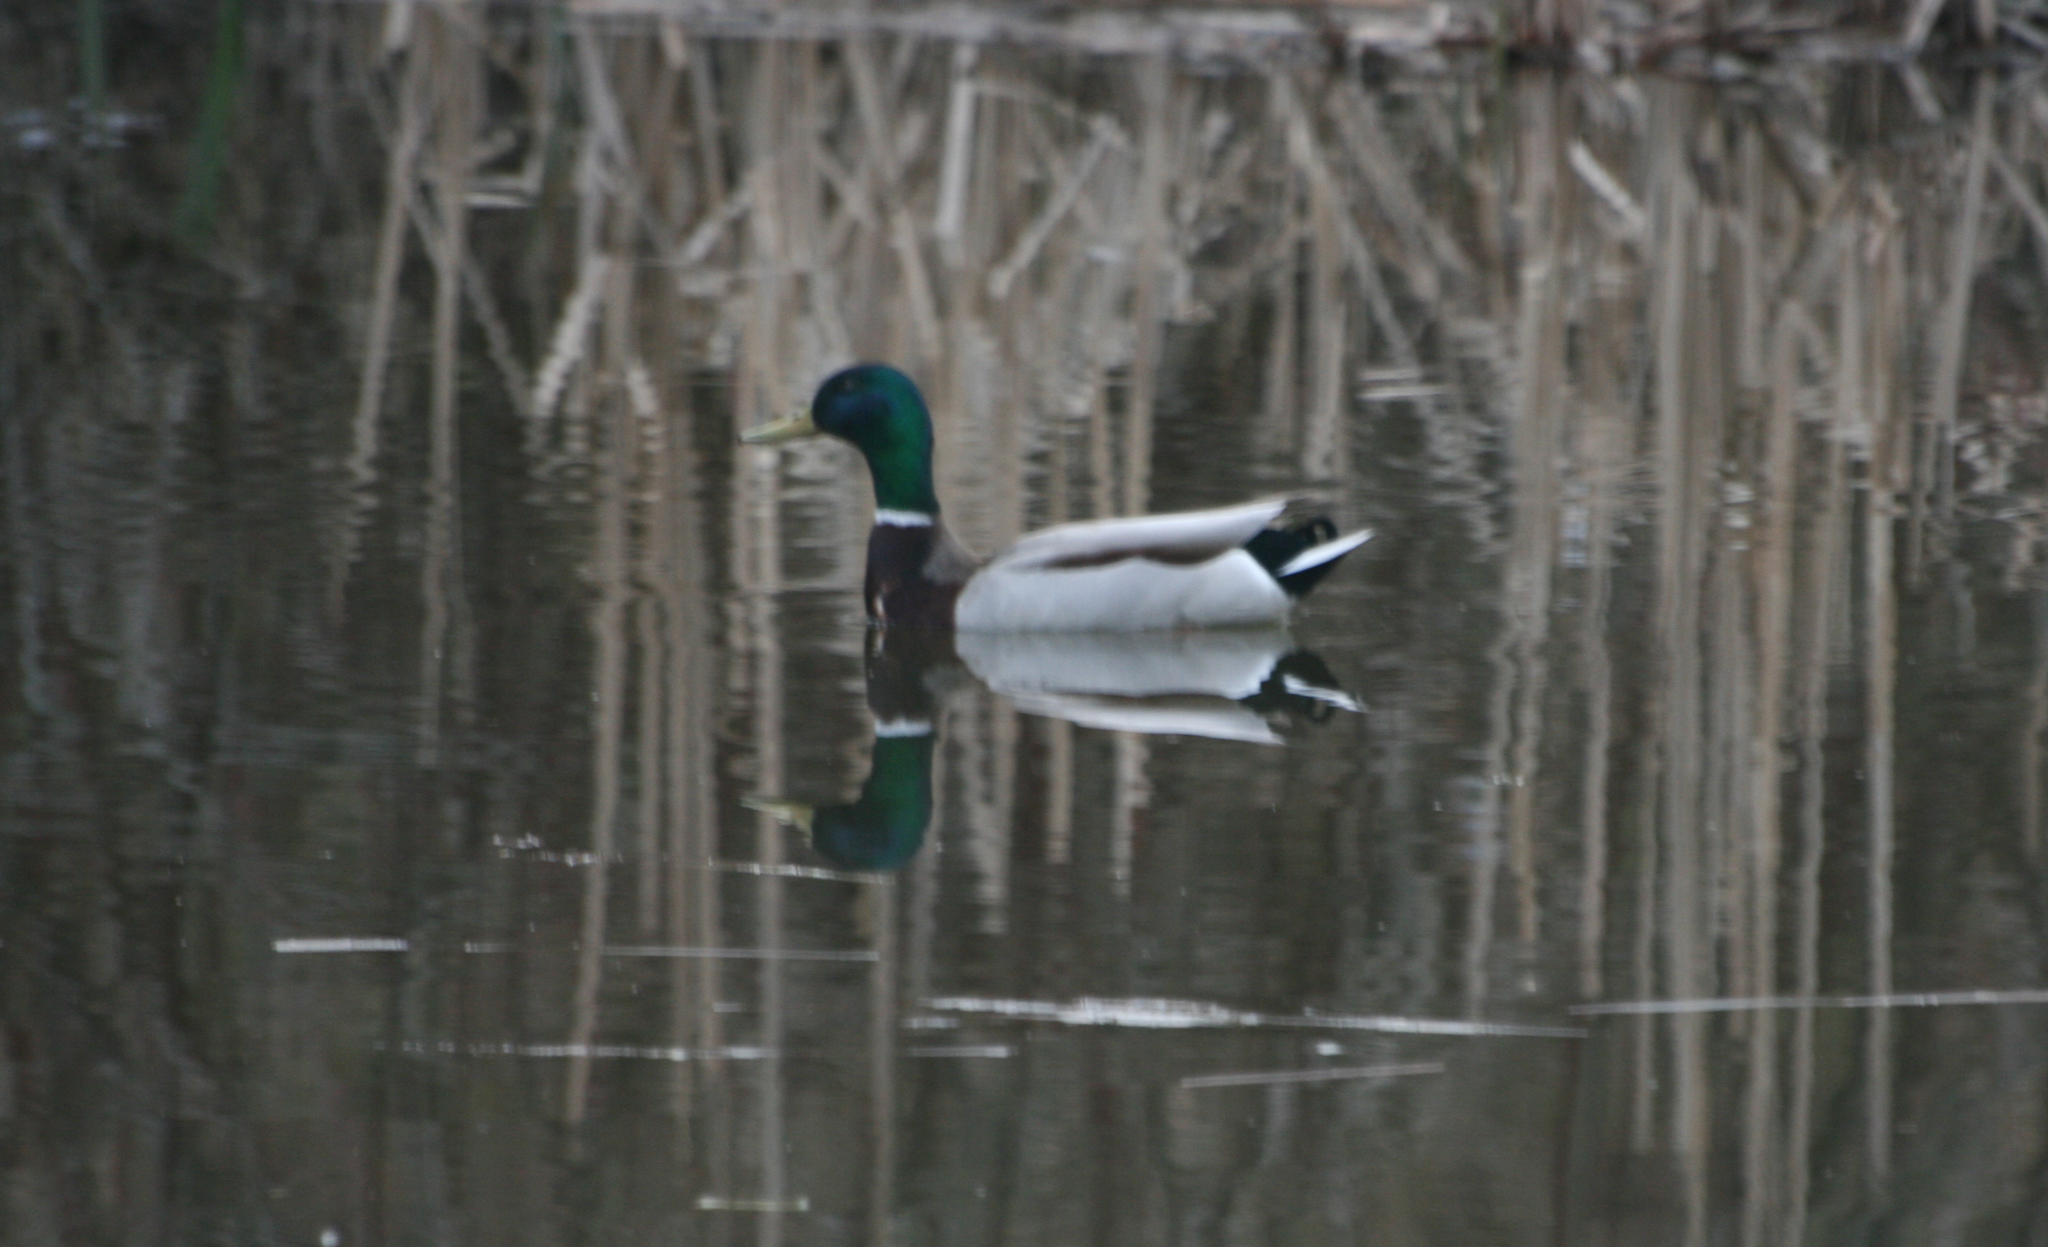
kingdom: Animalia
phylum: Chordata
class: Aves
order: Anseriformes
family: Anatidae
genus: Anas
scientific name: Anas platyrhynchos
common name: Mallard
